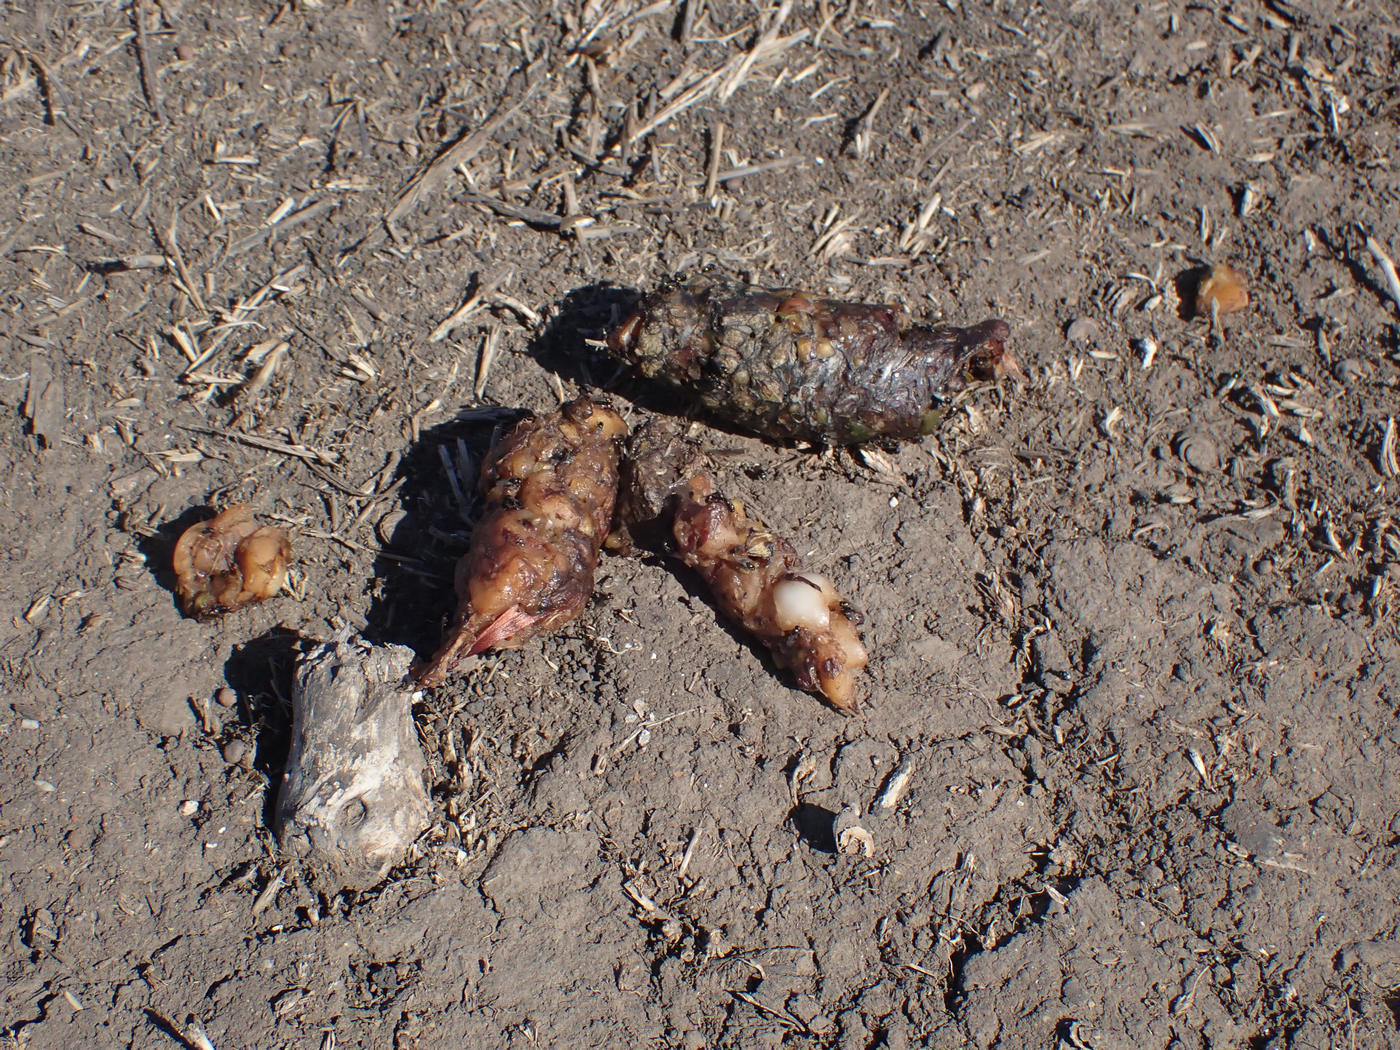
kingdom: Animalia
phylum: Chordata
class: Mammalia
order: Carnivora
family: Canidae
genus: Urocyon
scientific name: Urocyon littoralis
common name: Island gray fox
